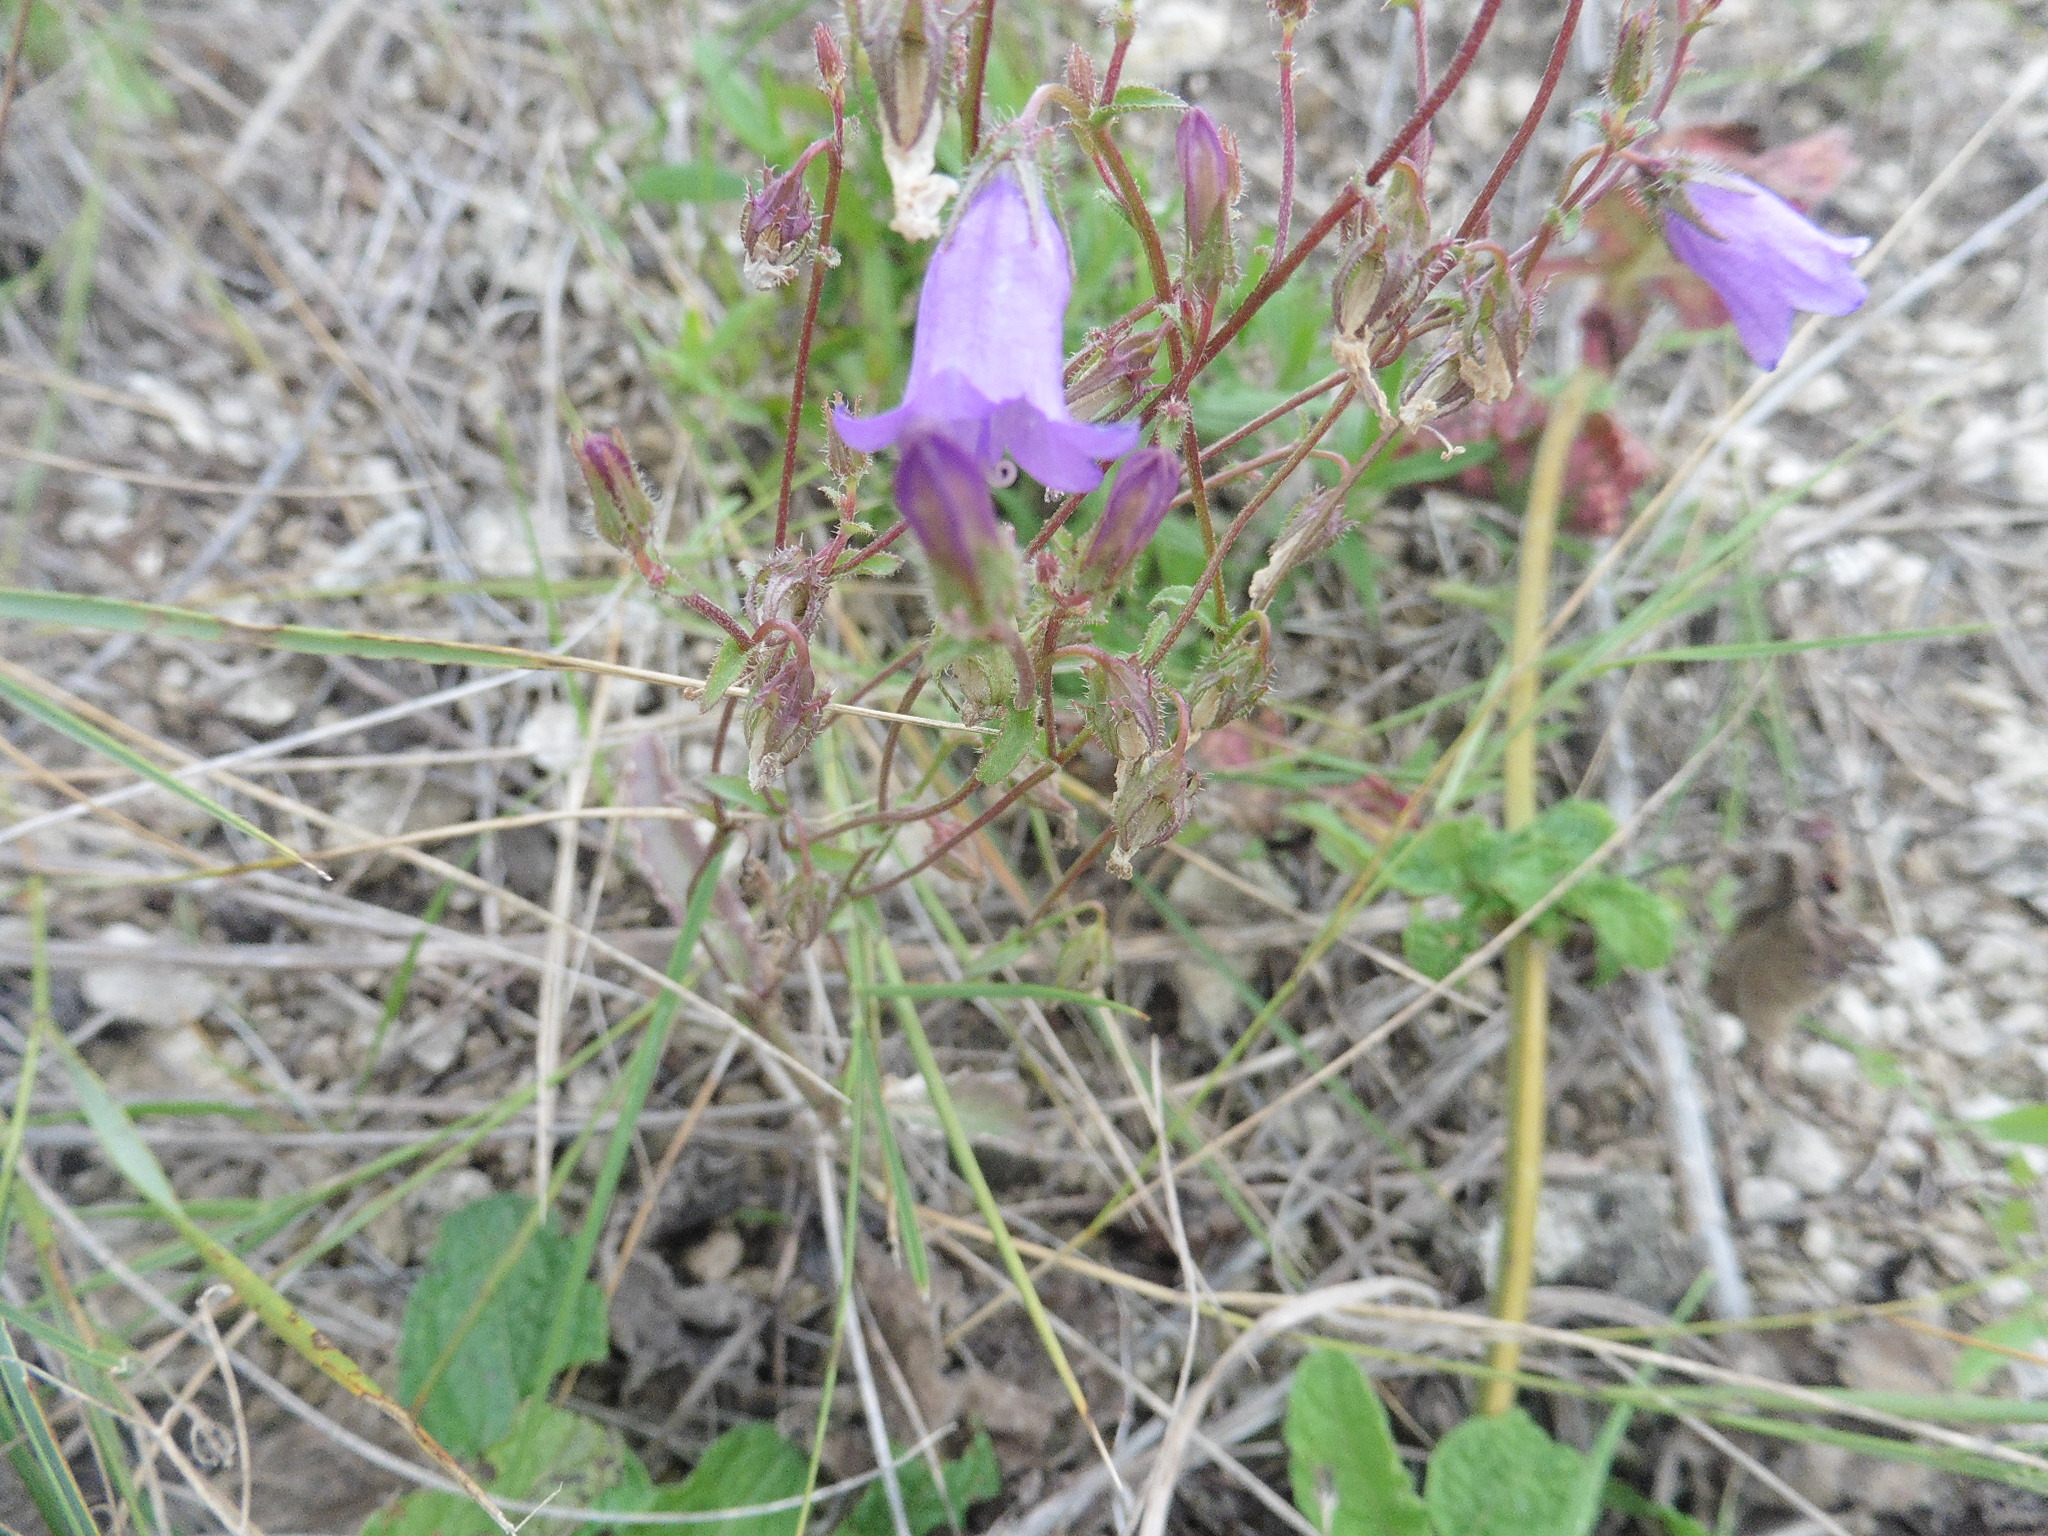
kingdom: Plantae
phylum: Tracheophyta
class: Magnoliopsida
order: Asterales
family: Campanulaceae
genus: Campanula
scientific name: Campanula sibirica
